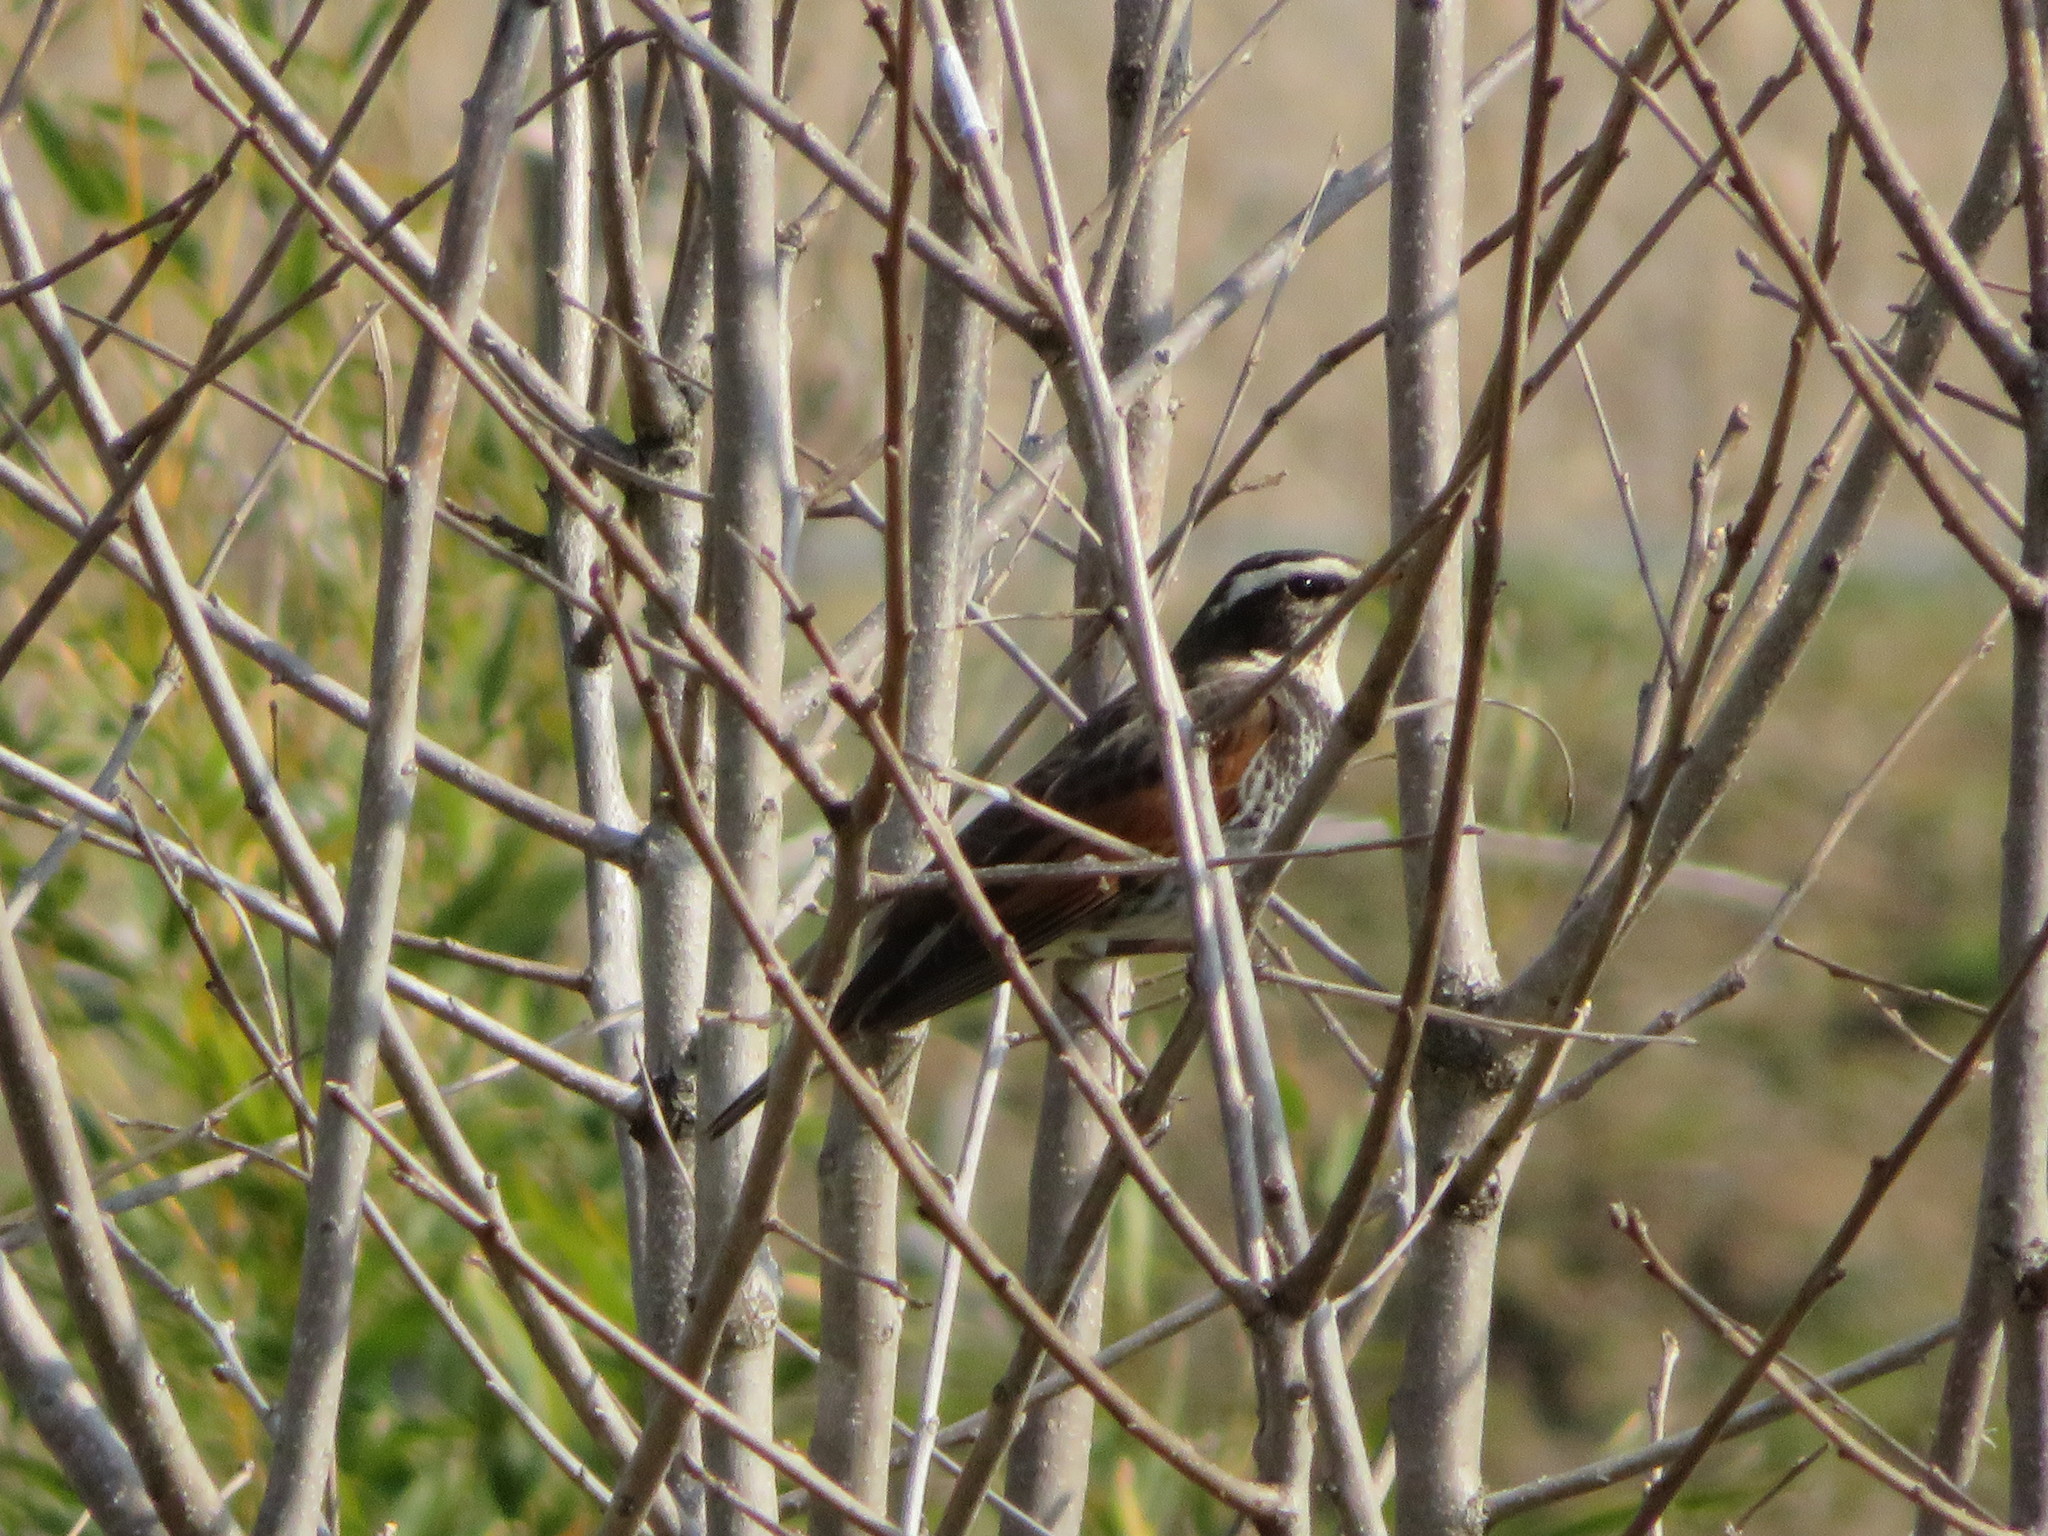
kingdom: Animalia
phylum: Chordata
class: Aves
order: Passeriformes
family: Turdidae
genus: Turdus
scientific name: Turdus eunomus
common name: Dusky thrush
